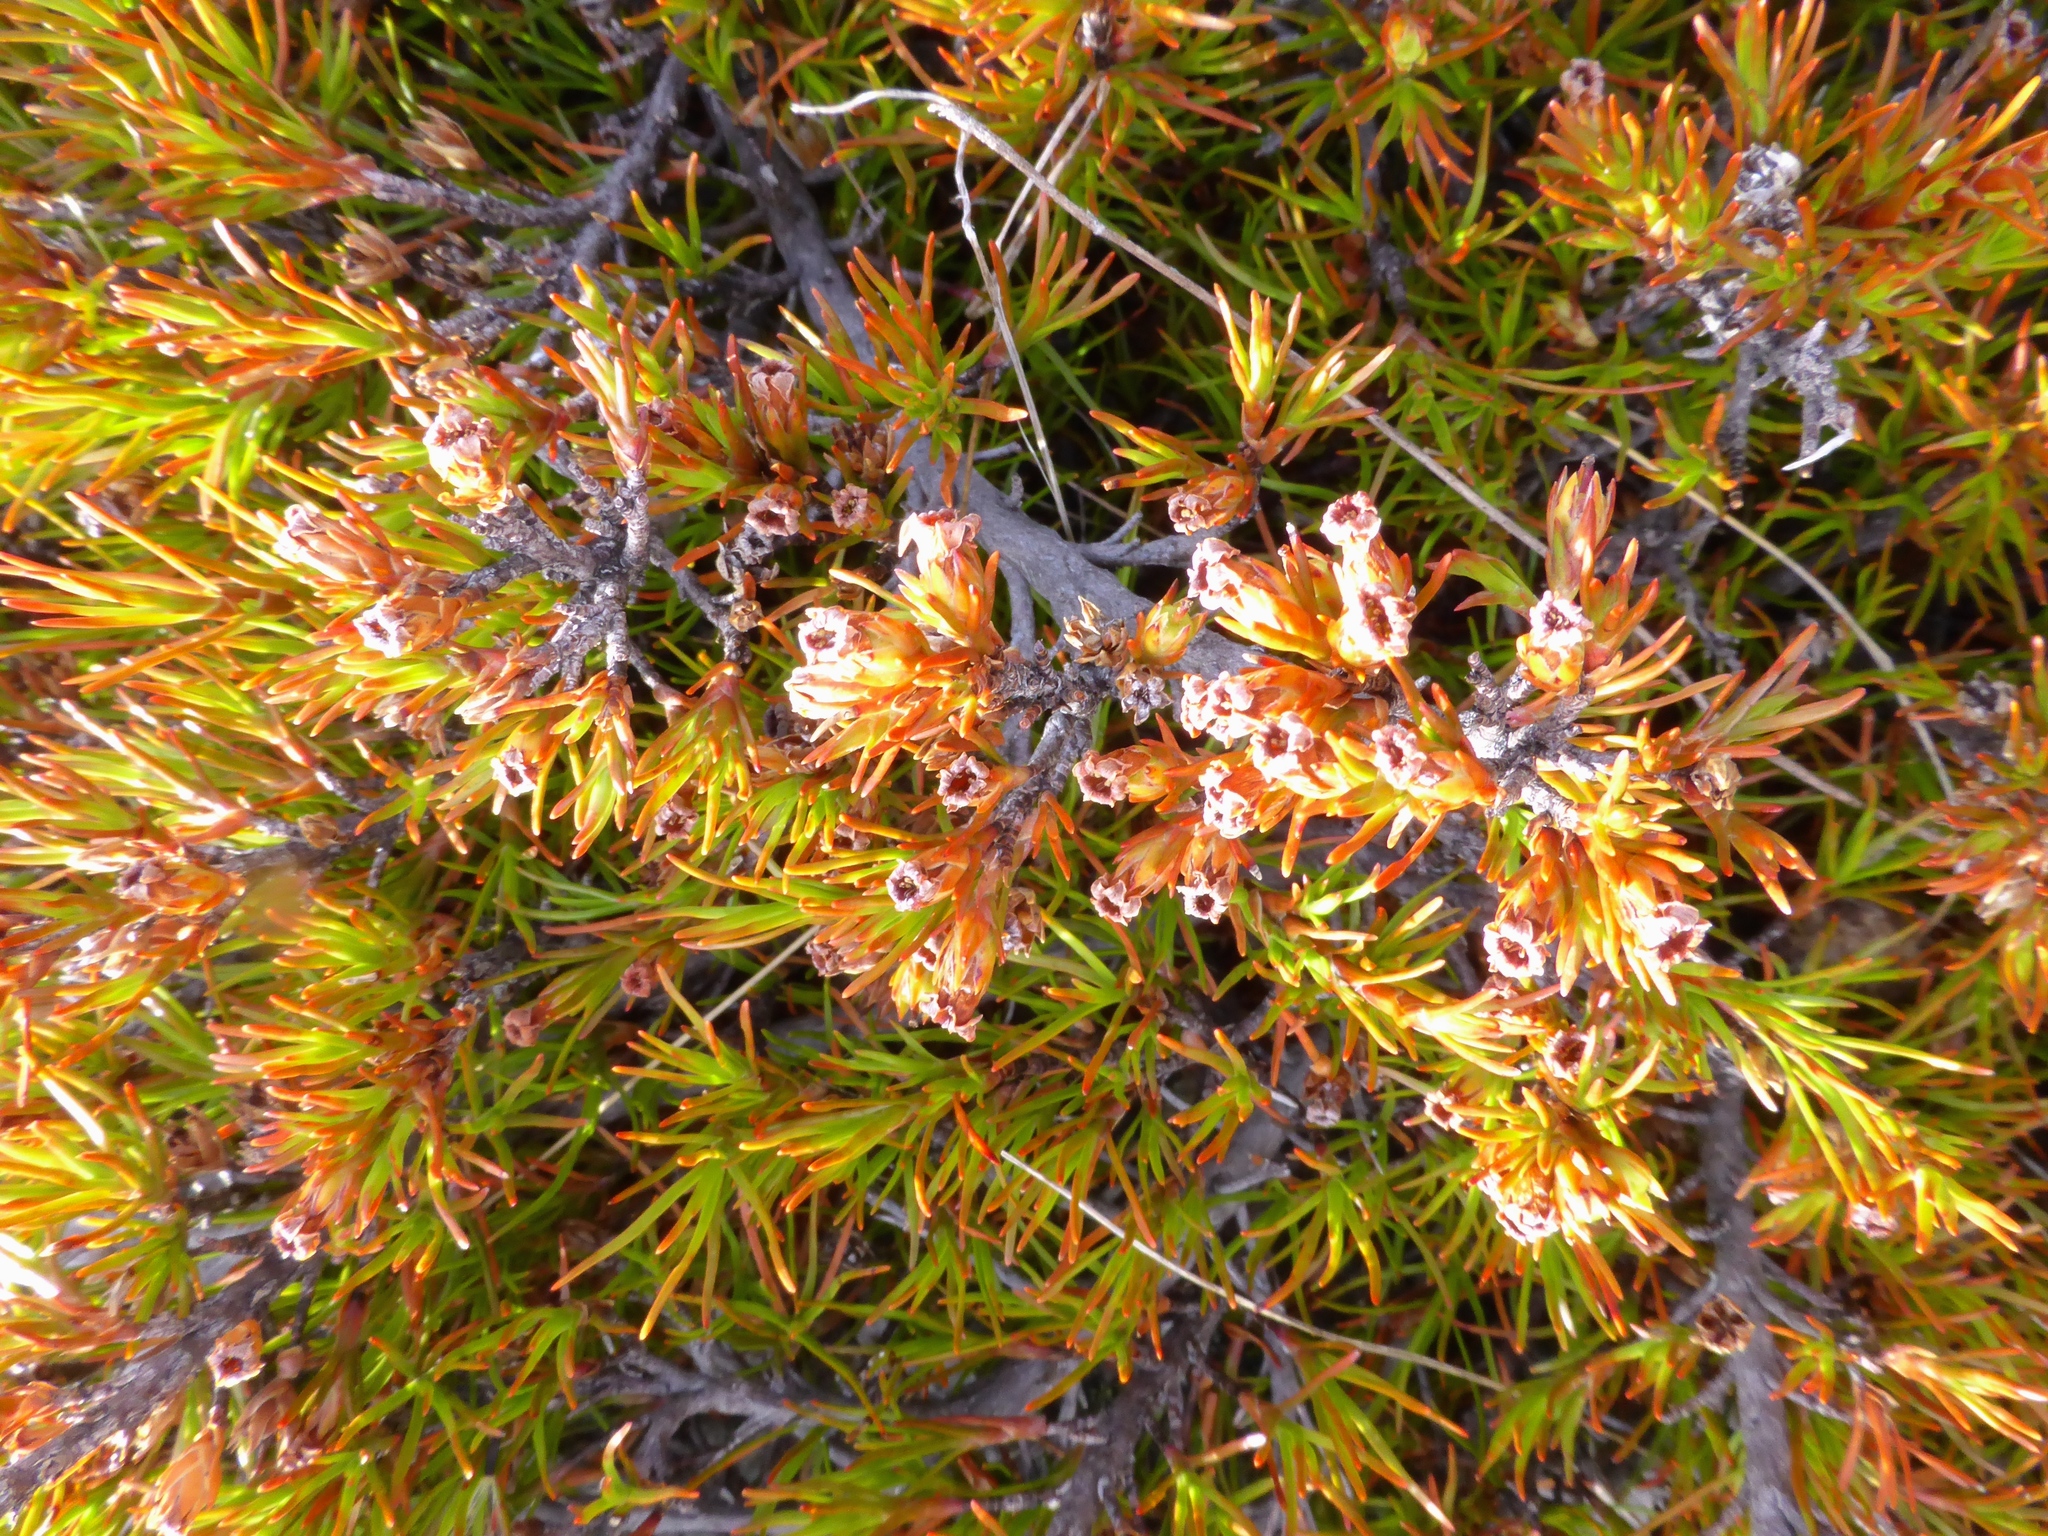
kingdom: Plantae
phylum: Tracheophyta
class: Magnoliopsida
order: Ericales
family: Ericaceae
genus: Dracophyllum
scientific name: Dracophyllum pronum
